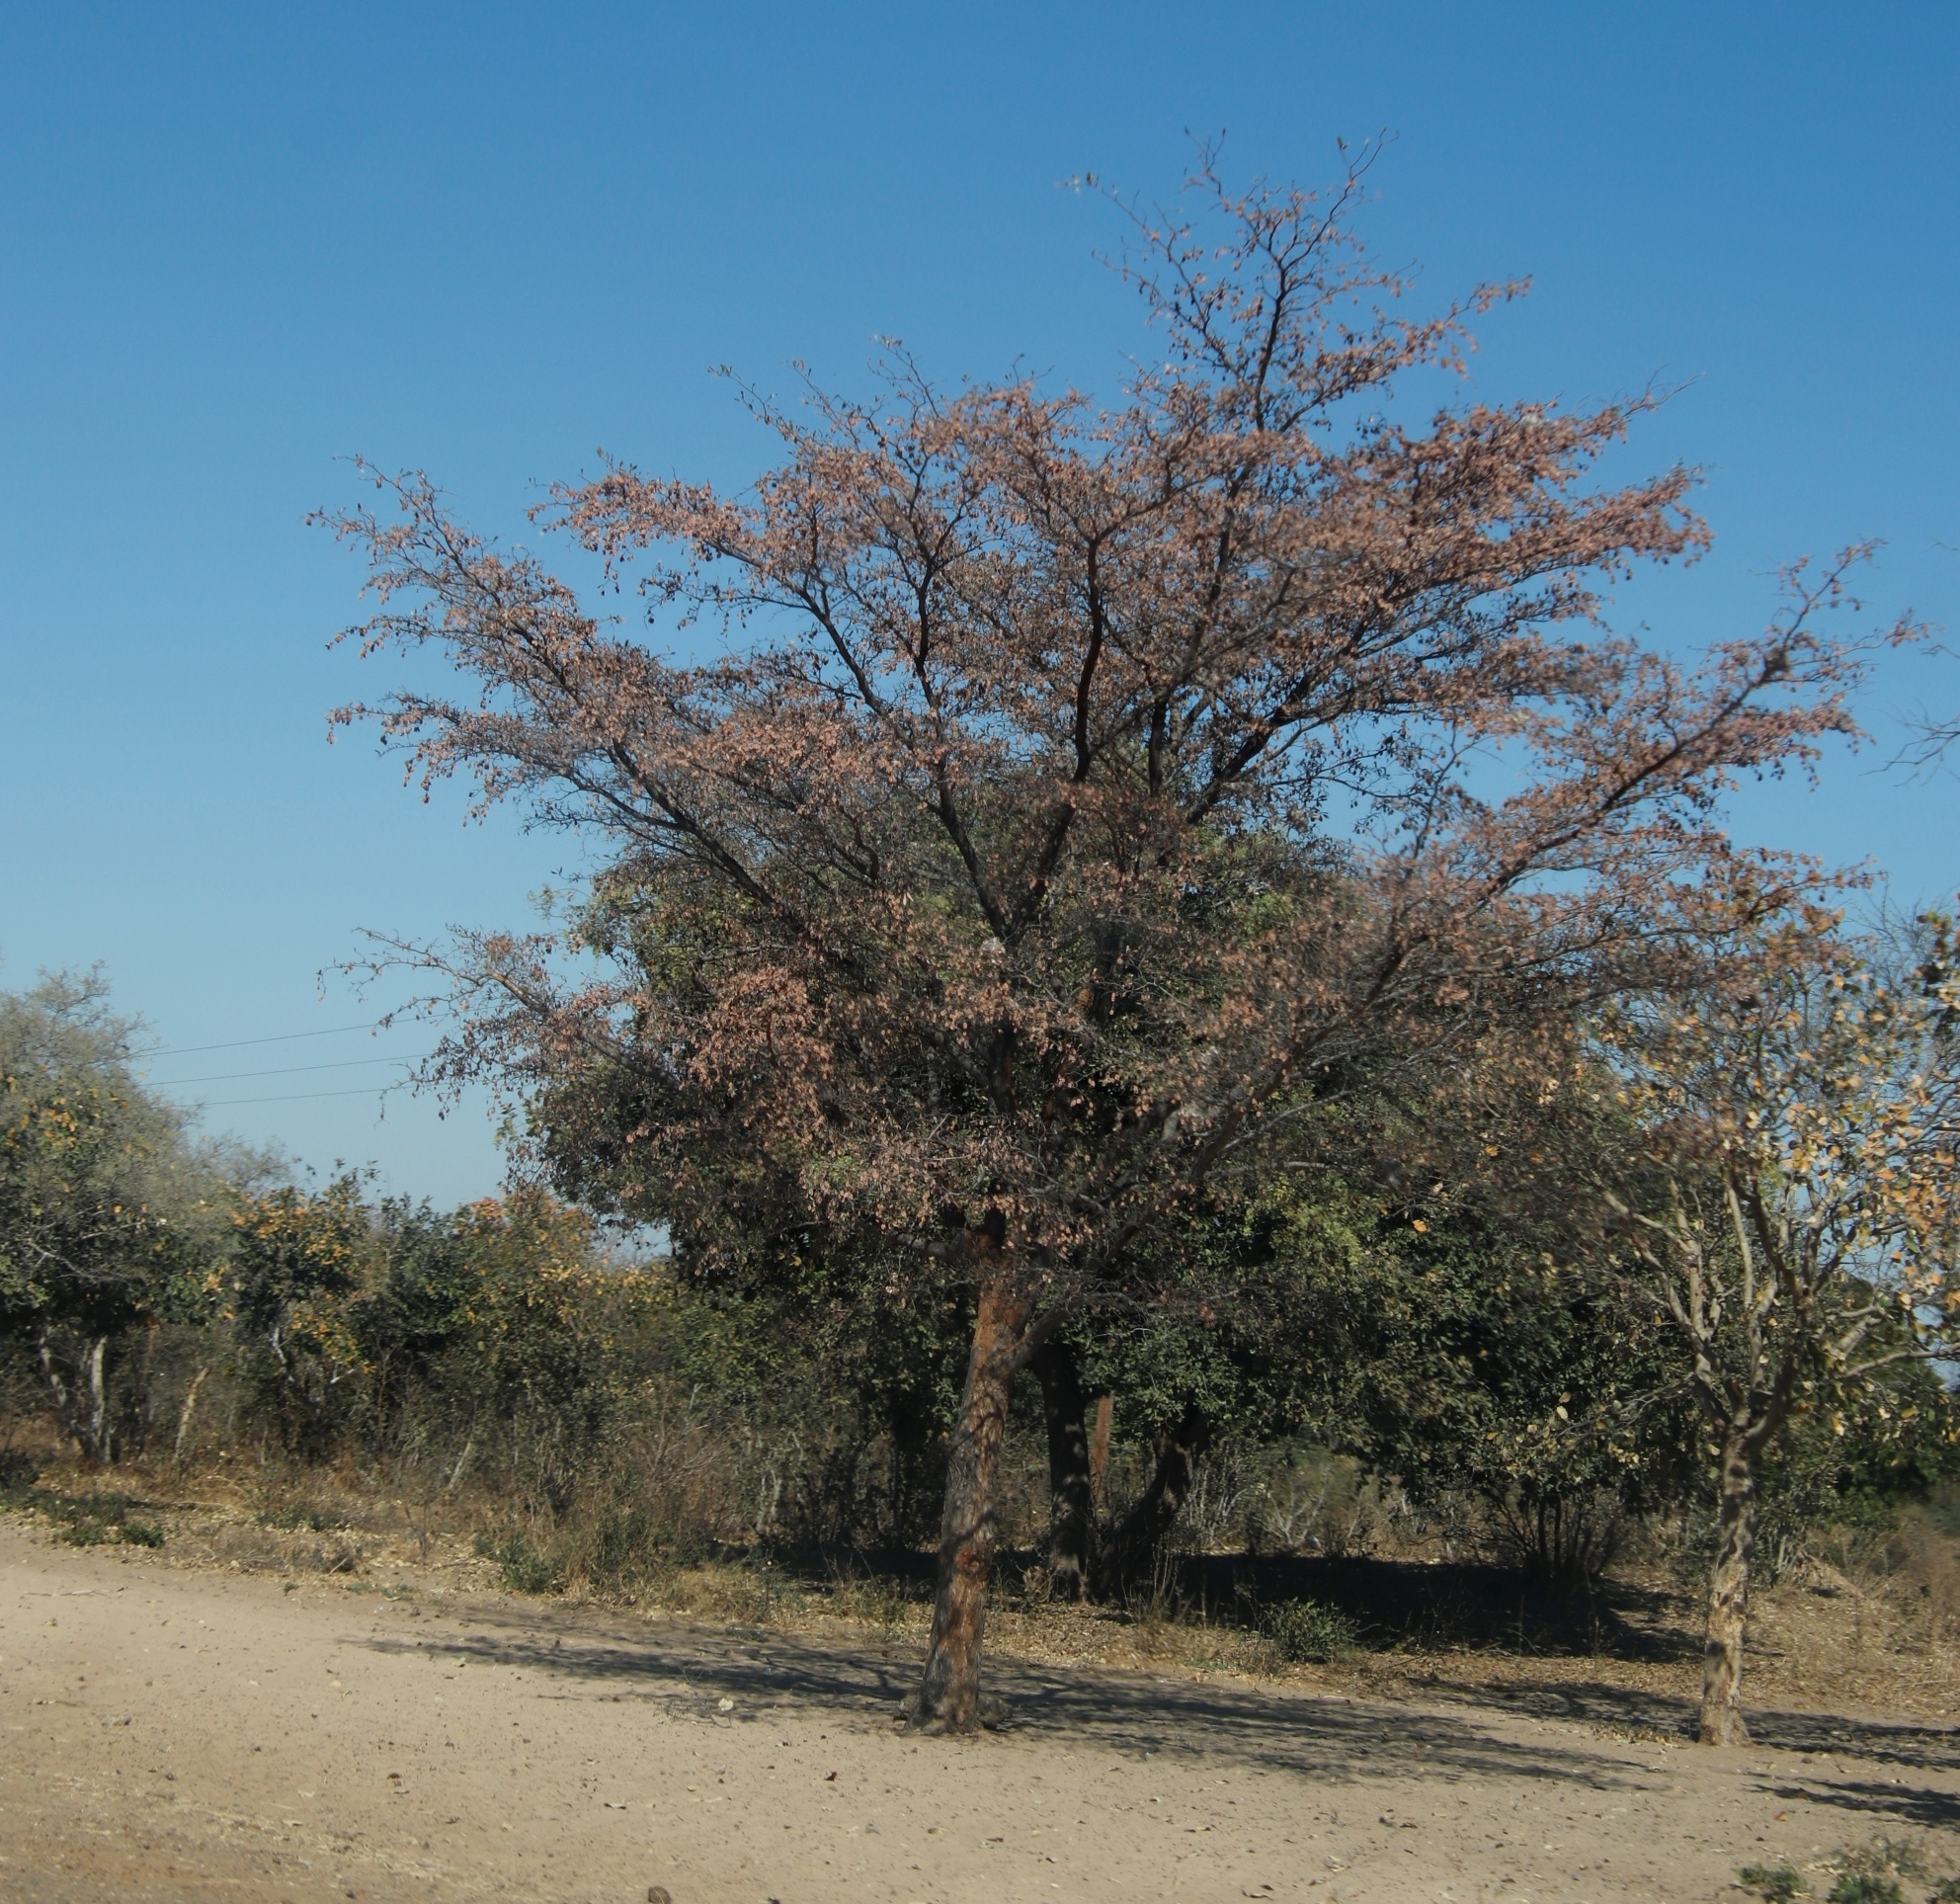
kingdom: Plantae
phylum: Tracheophyta
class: Magnoliopsida
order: Myrtales
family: Combretaceae
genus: Terminalia
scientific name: Terminalia prunioides
